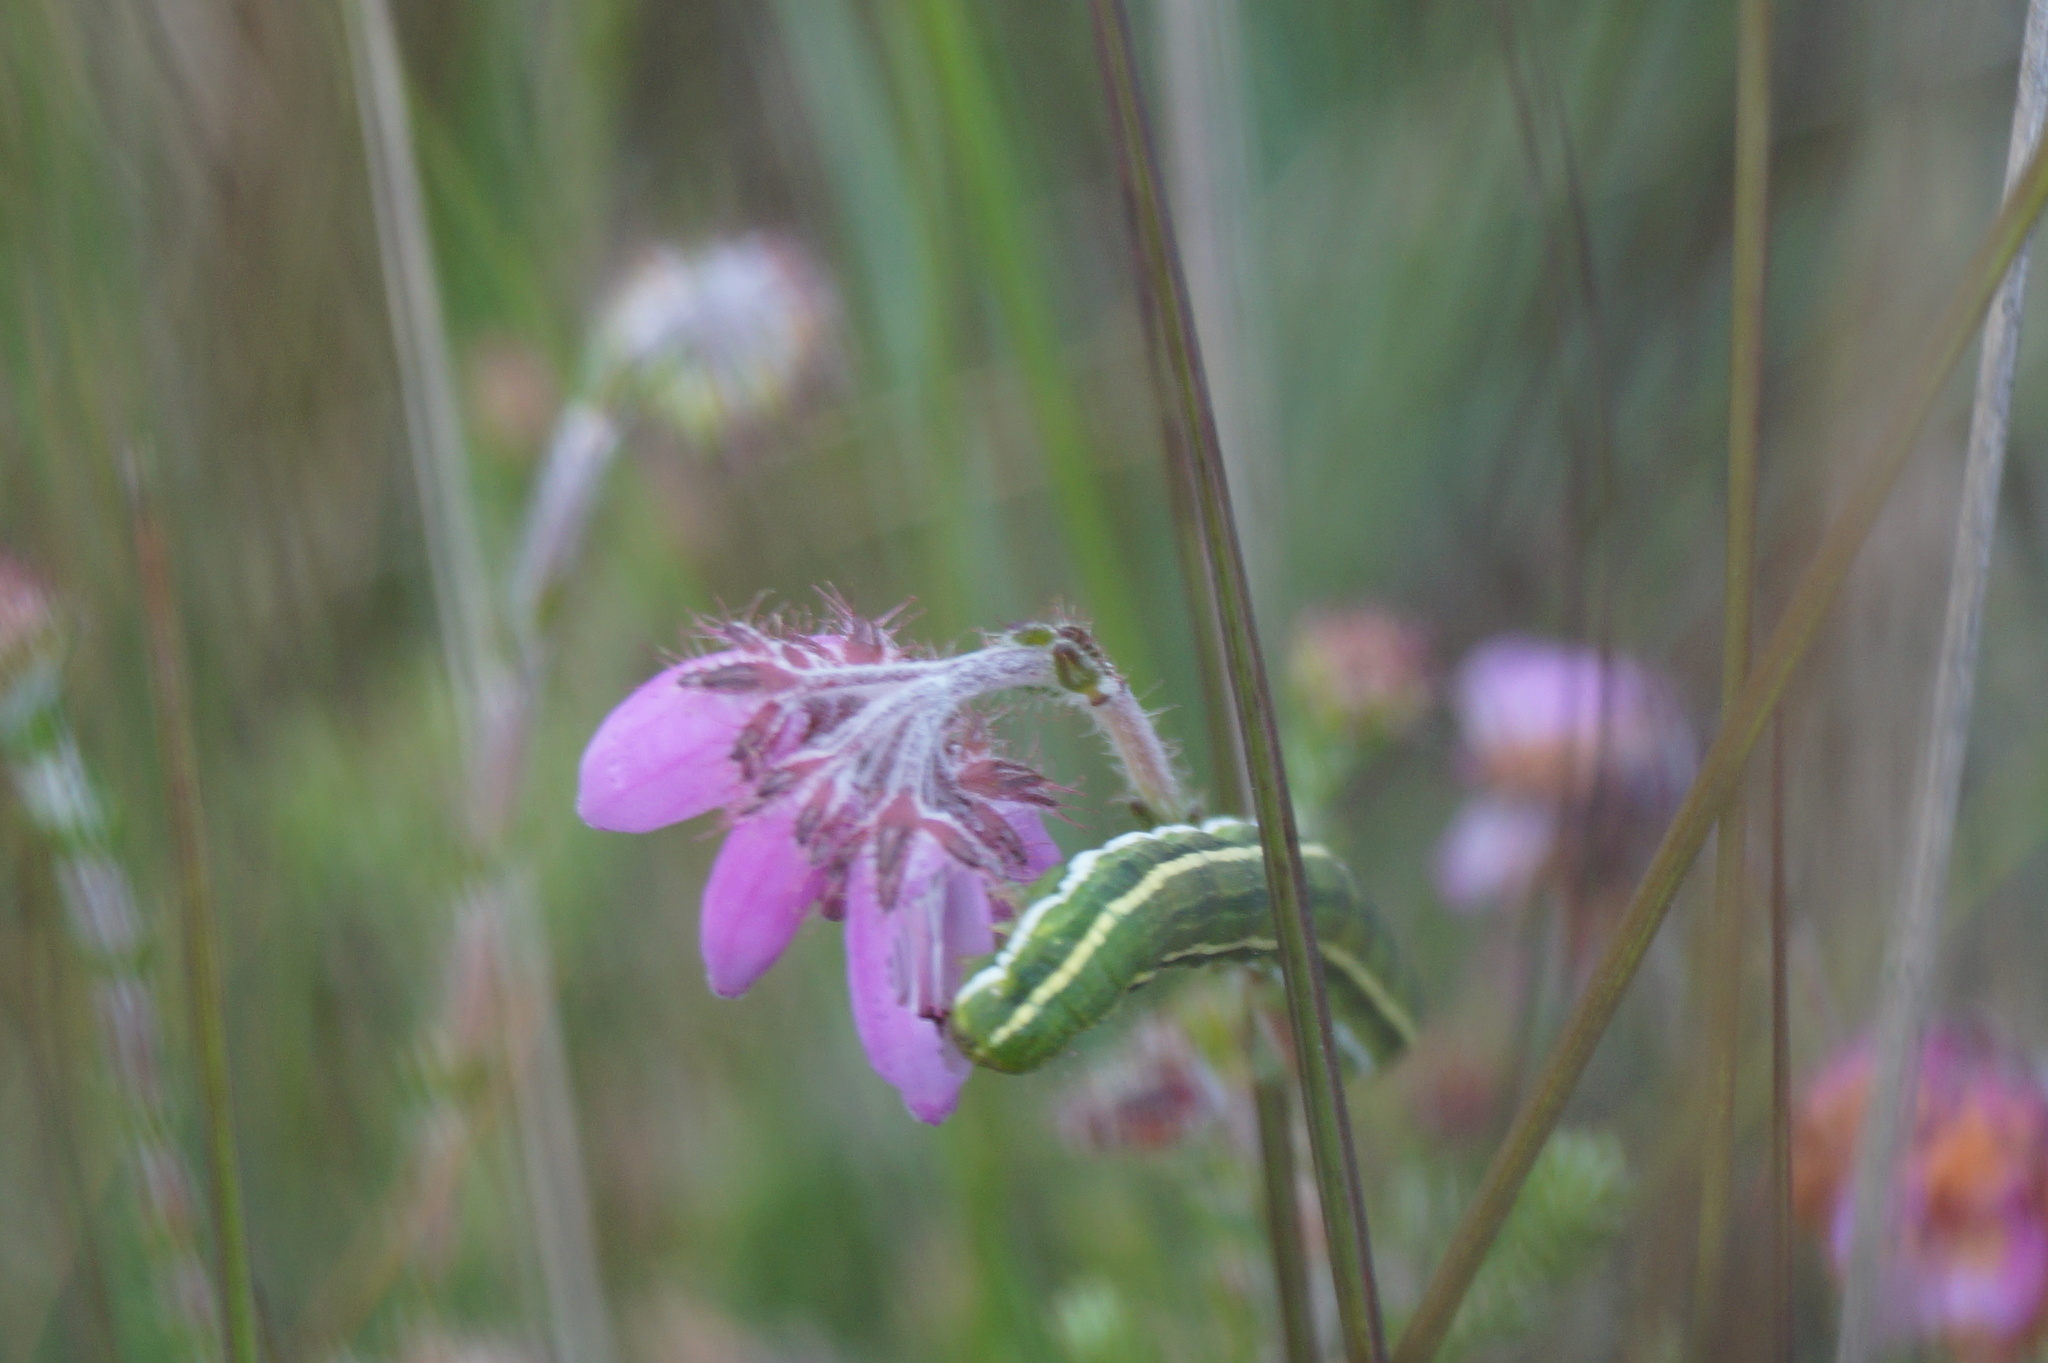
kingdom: Plantae
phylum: Tracheophyta
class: Magnoliopsida
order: Ericales
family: Ericaceae
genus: Erica
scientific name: Erica tetralix
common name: Cross-leaved heath
